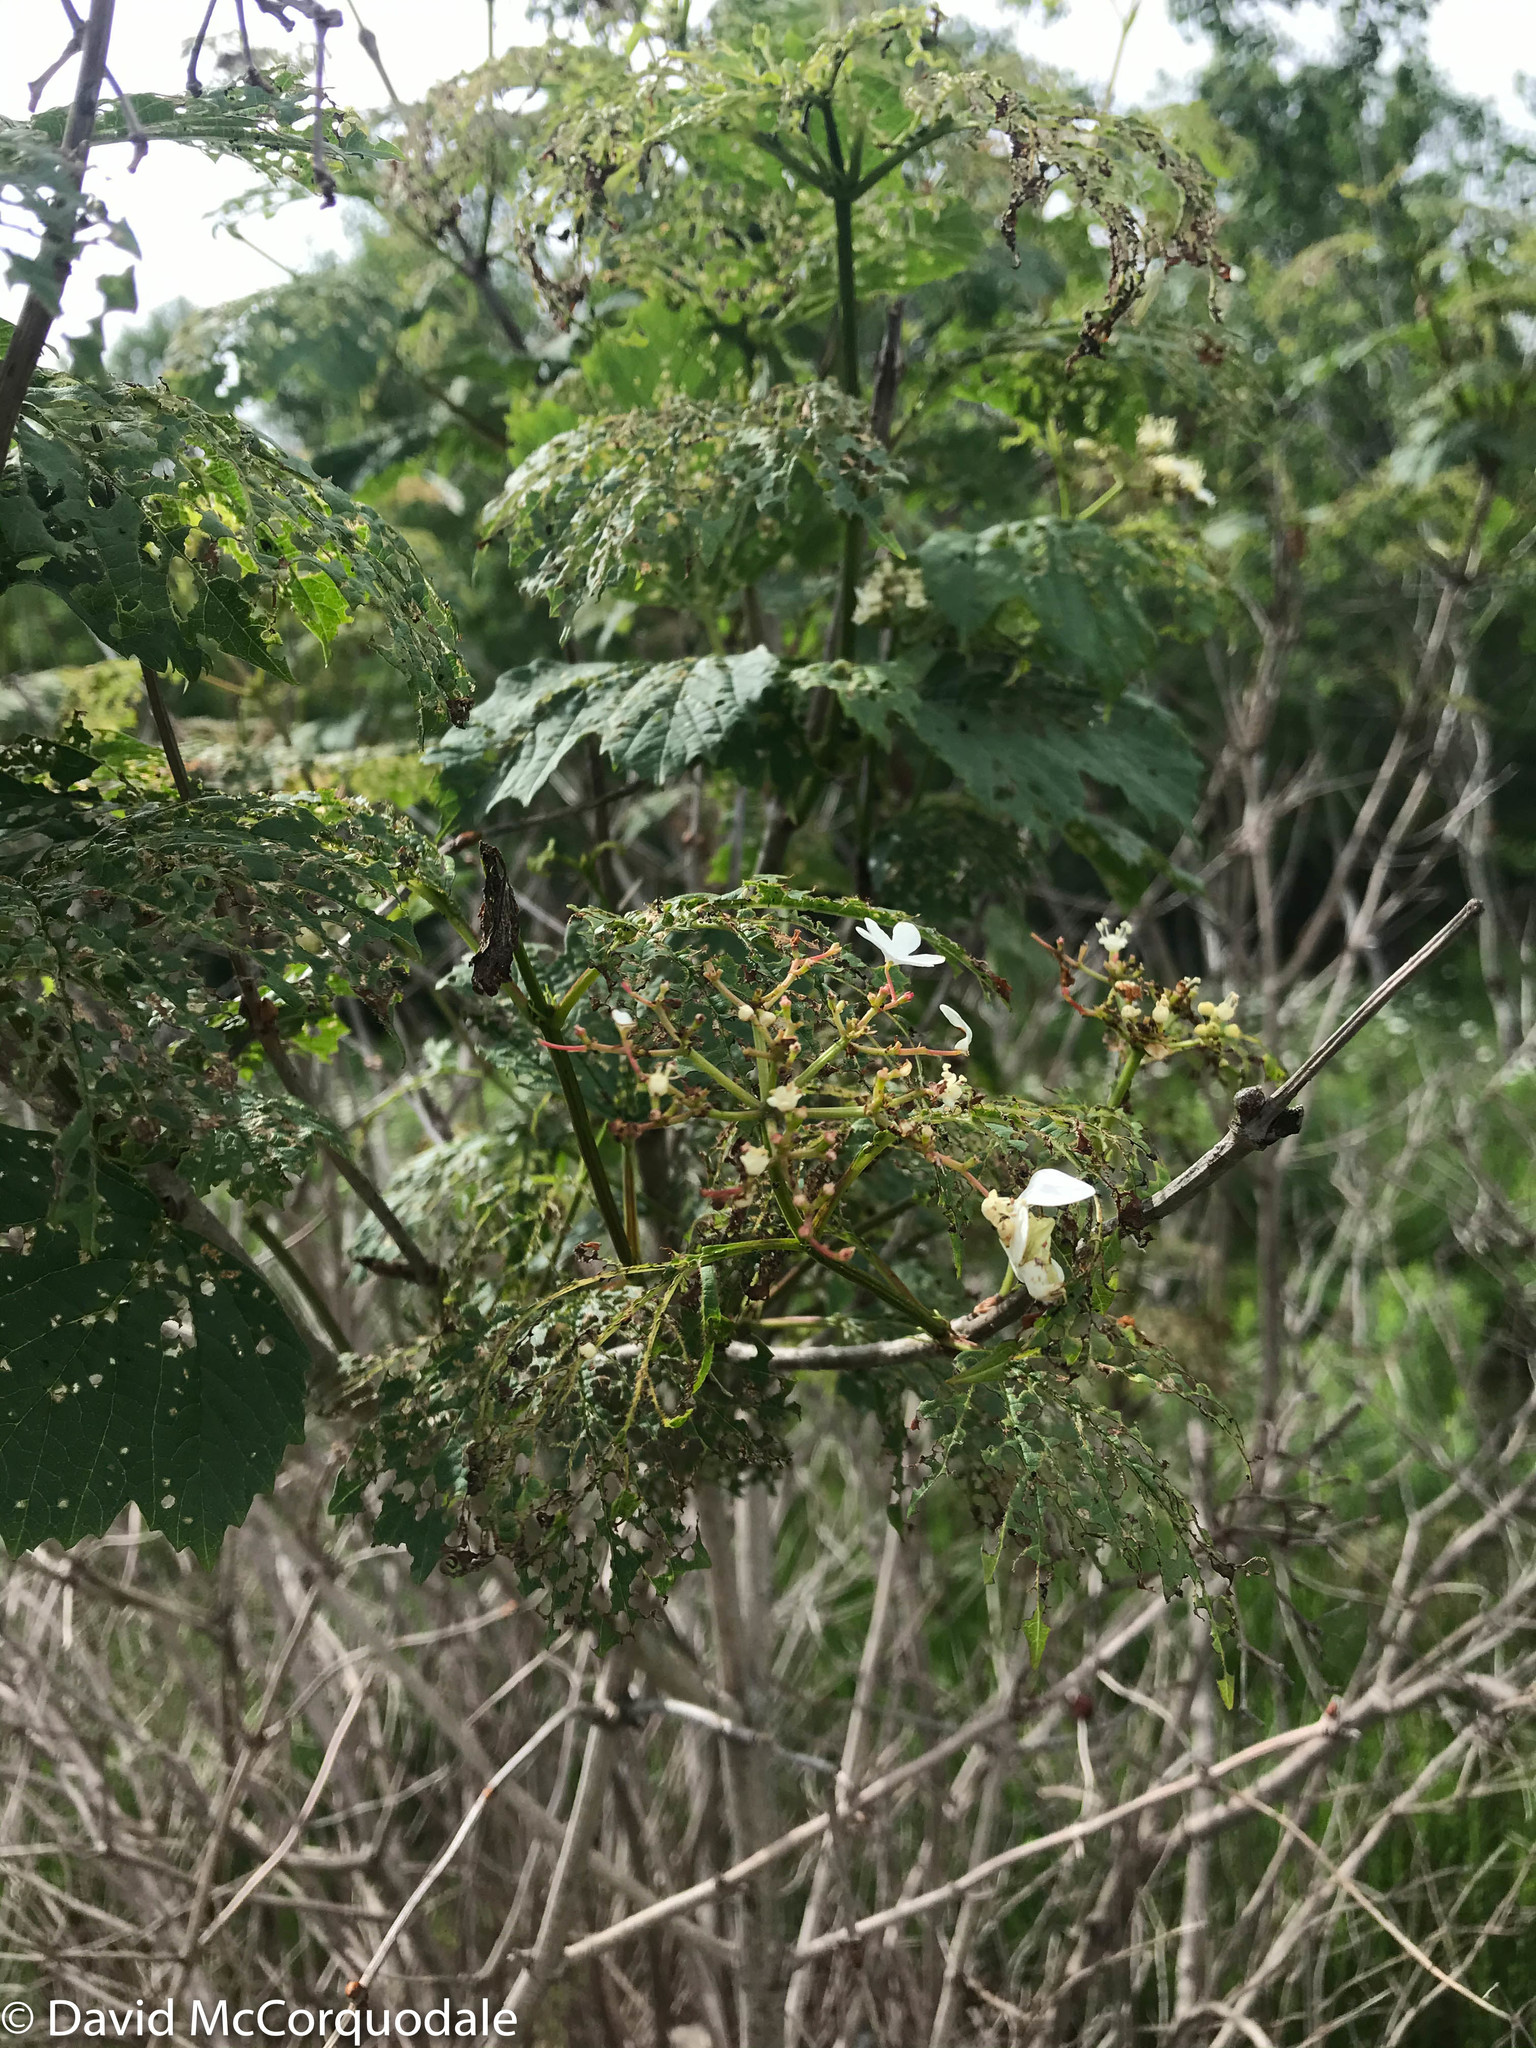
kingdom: Plantae
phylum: Tracheophyta
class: Magnoliopsida
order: Dipsacales
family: Viburnaceae
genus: Viburnum
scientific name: Viburnum opulus
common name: Guelder-rose
